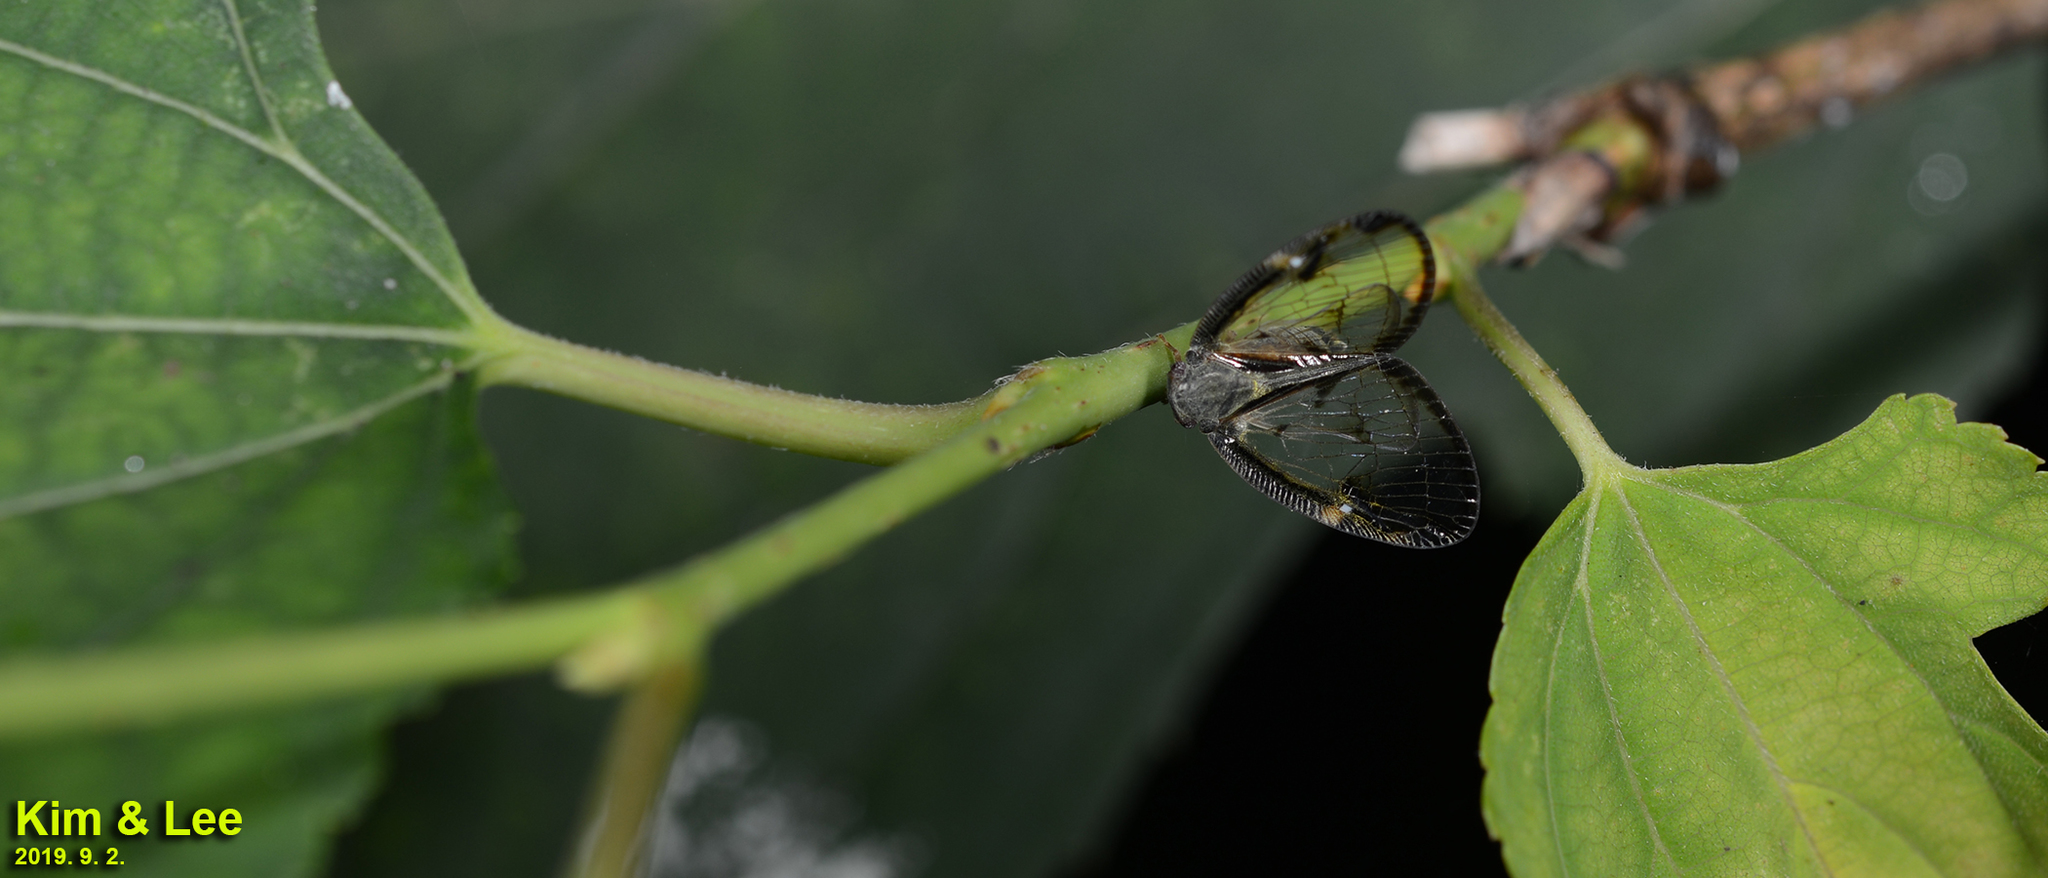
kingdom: Animalia
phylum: Arthropoda
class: Insecta
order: Hemiptera
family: Ricaniidae
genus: Euricania
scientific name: Euricania facialis
